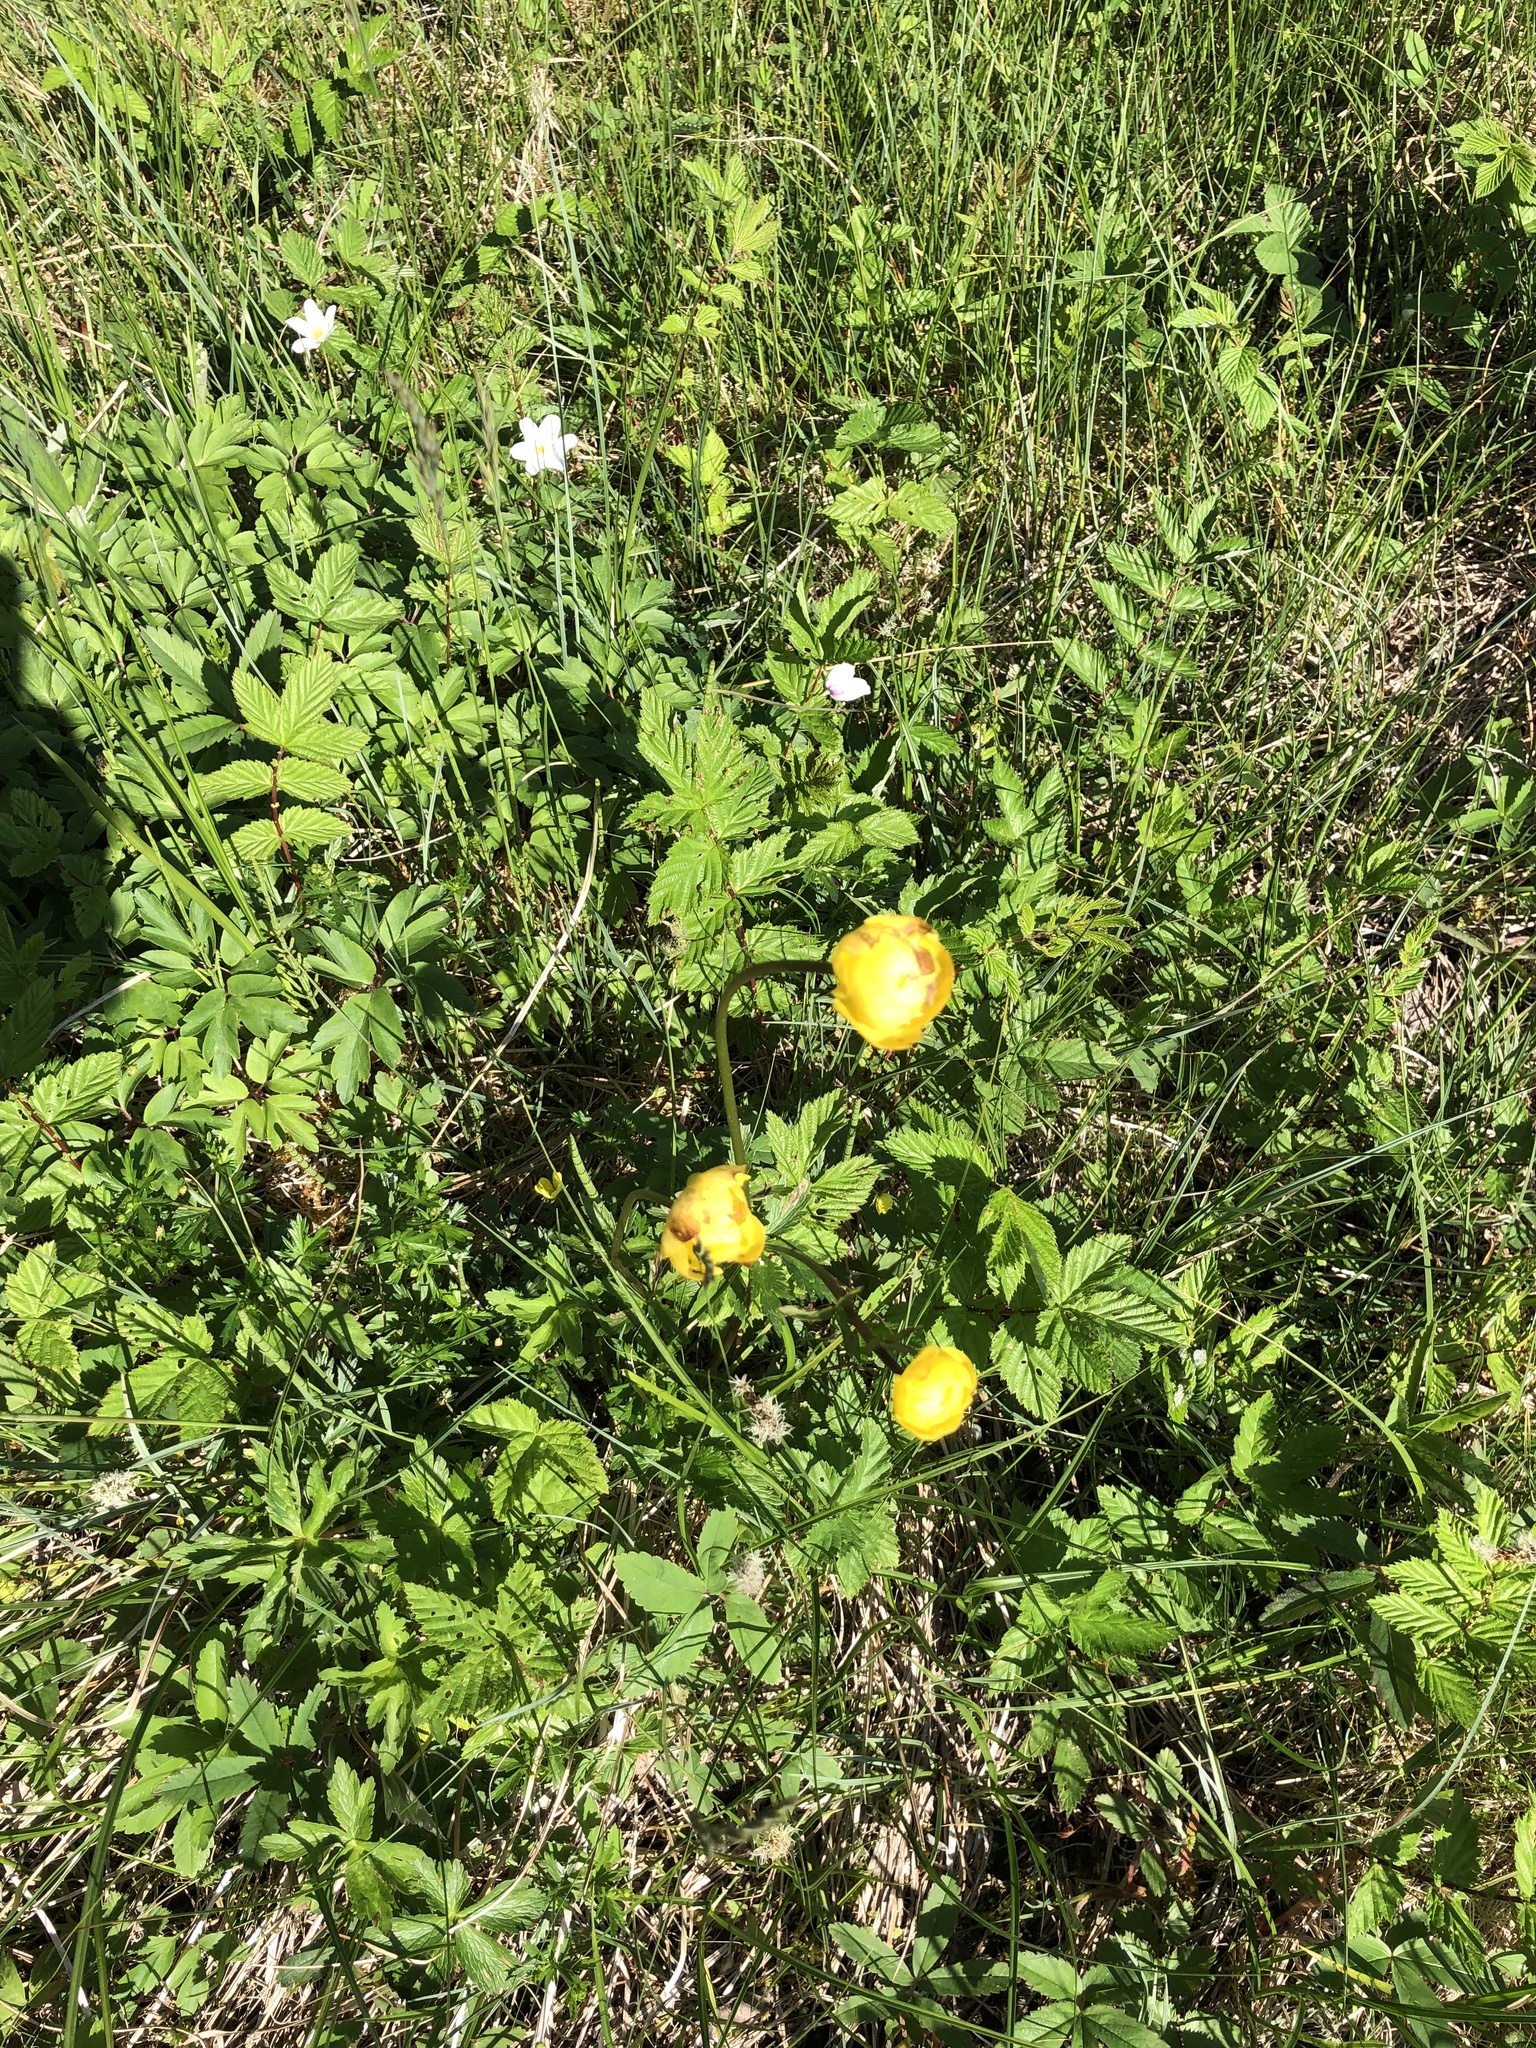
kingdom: Plantae
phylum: Tracheophyta
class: Magnoliopsida
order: Ranunculales
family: Ranunculaceae
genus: Trollius
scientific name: Trollius europaeus
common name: European globeflower
